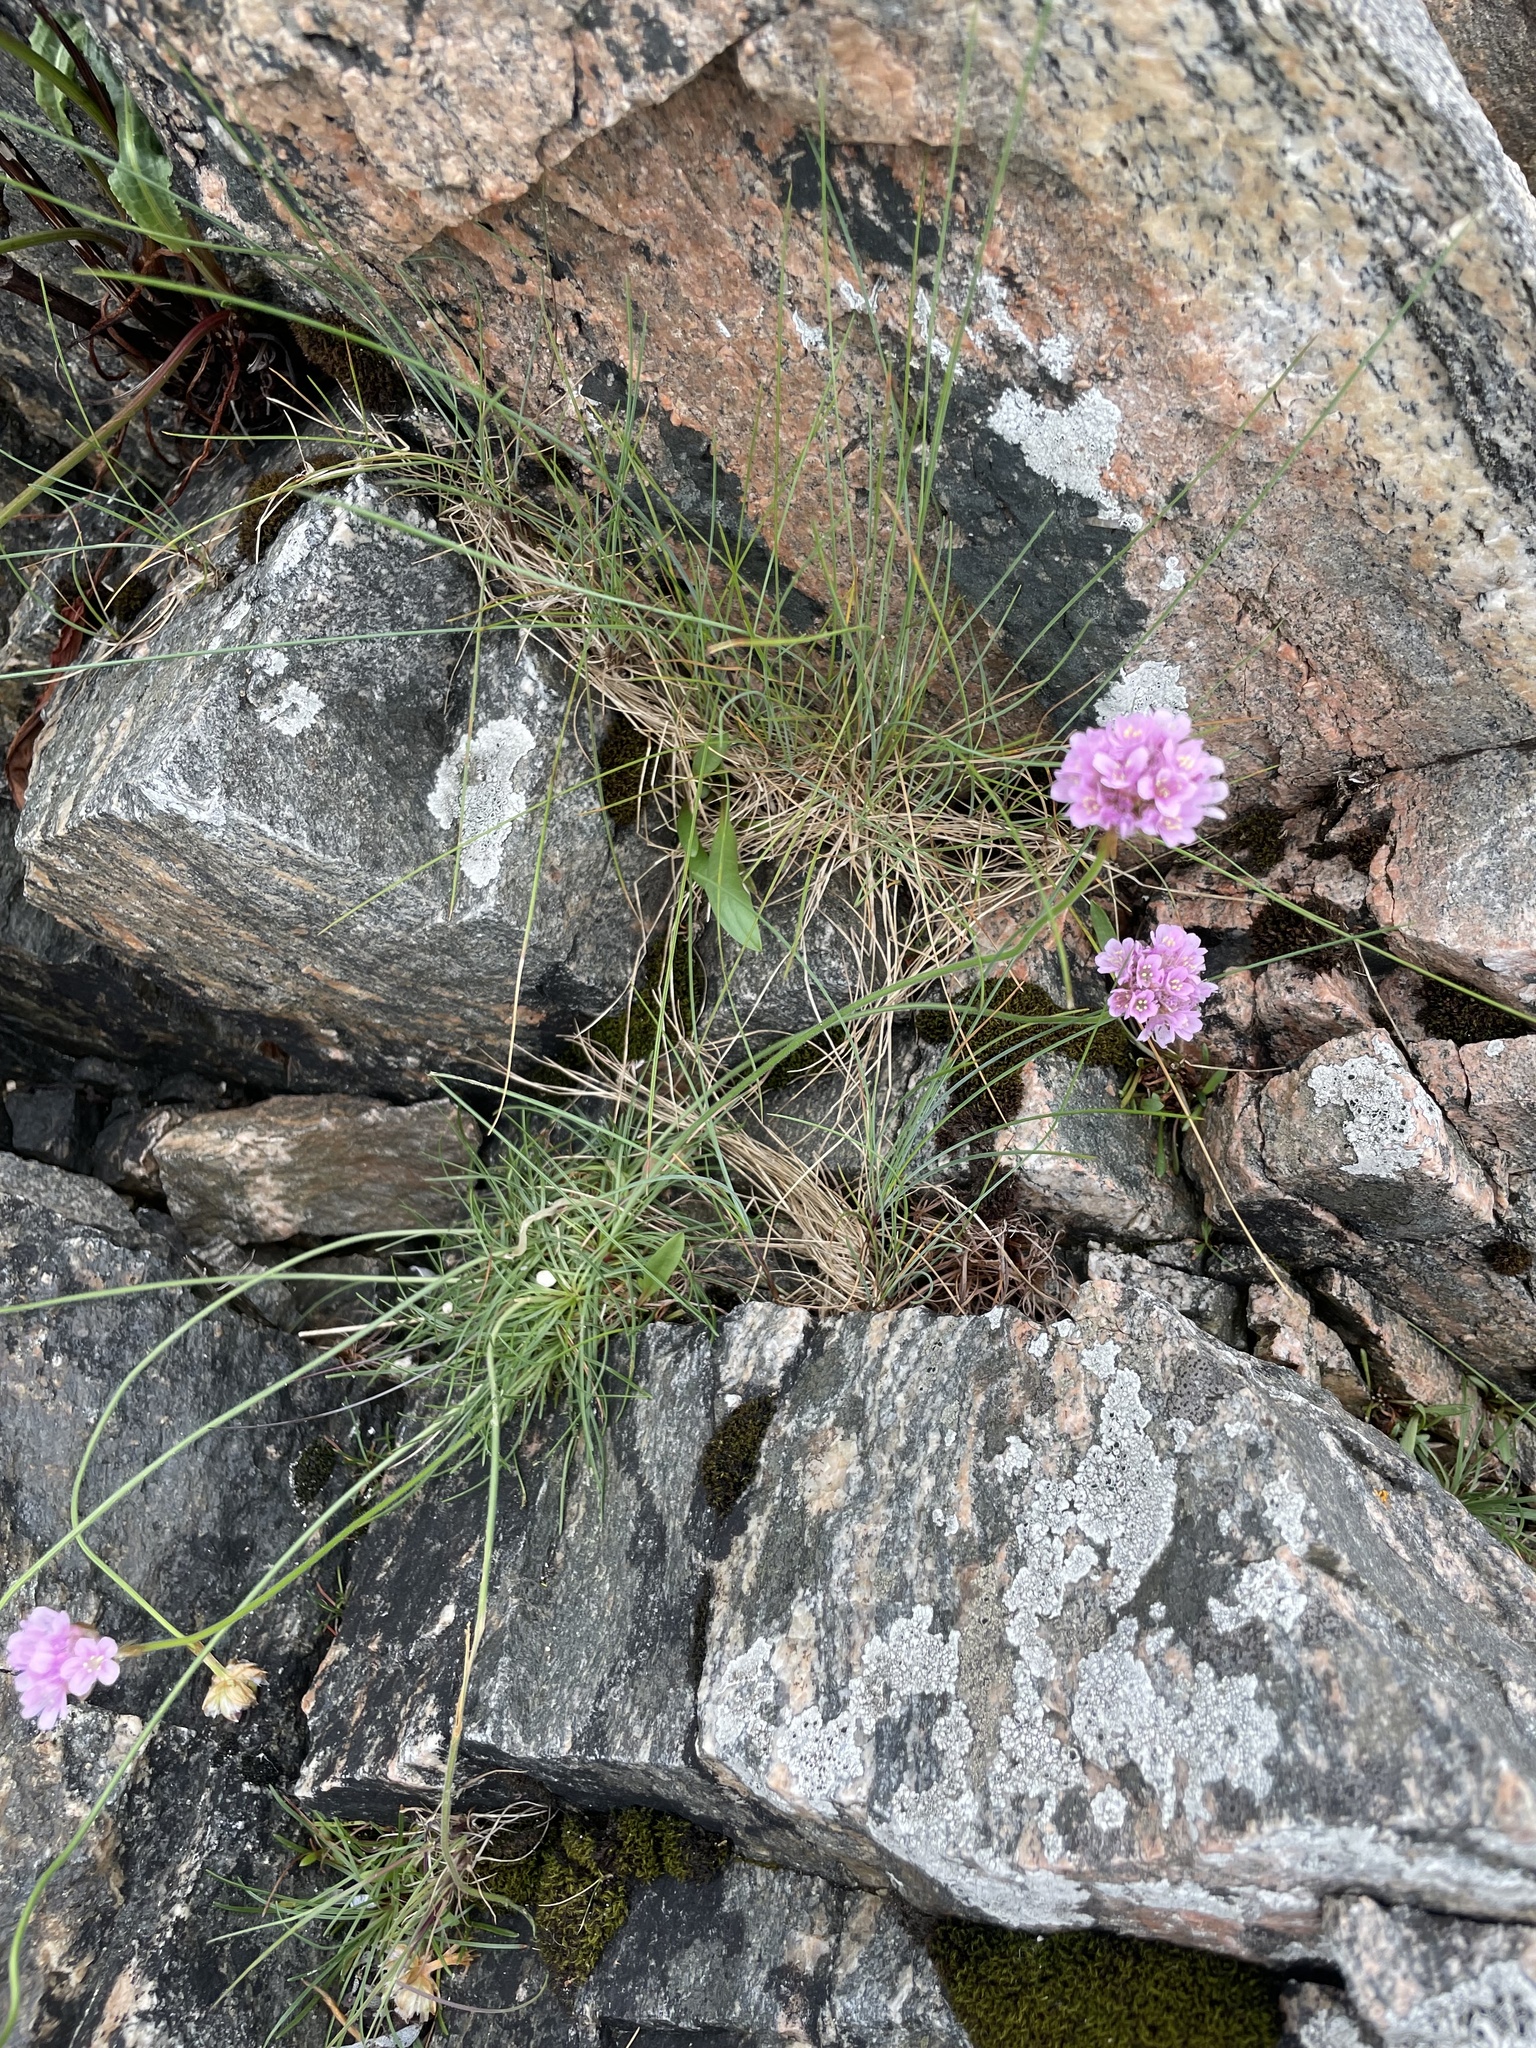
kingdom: Plantae
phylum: Tracheophyta
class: Magnoliopsida
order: Caryophyllales
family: Plumbaginaceae
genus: Armeria
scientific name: Armeria maritima
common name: Thrift
